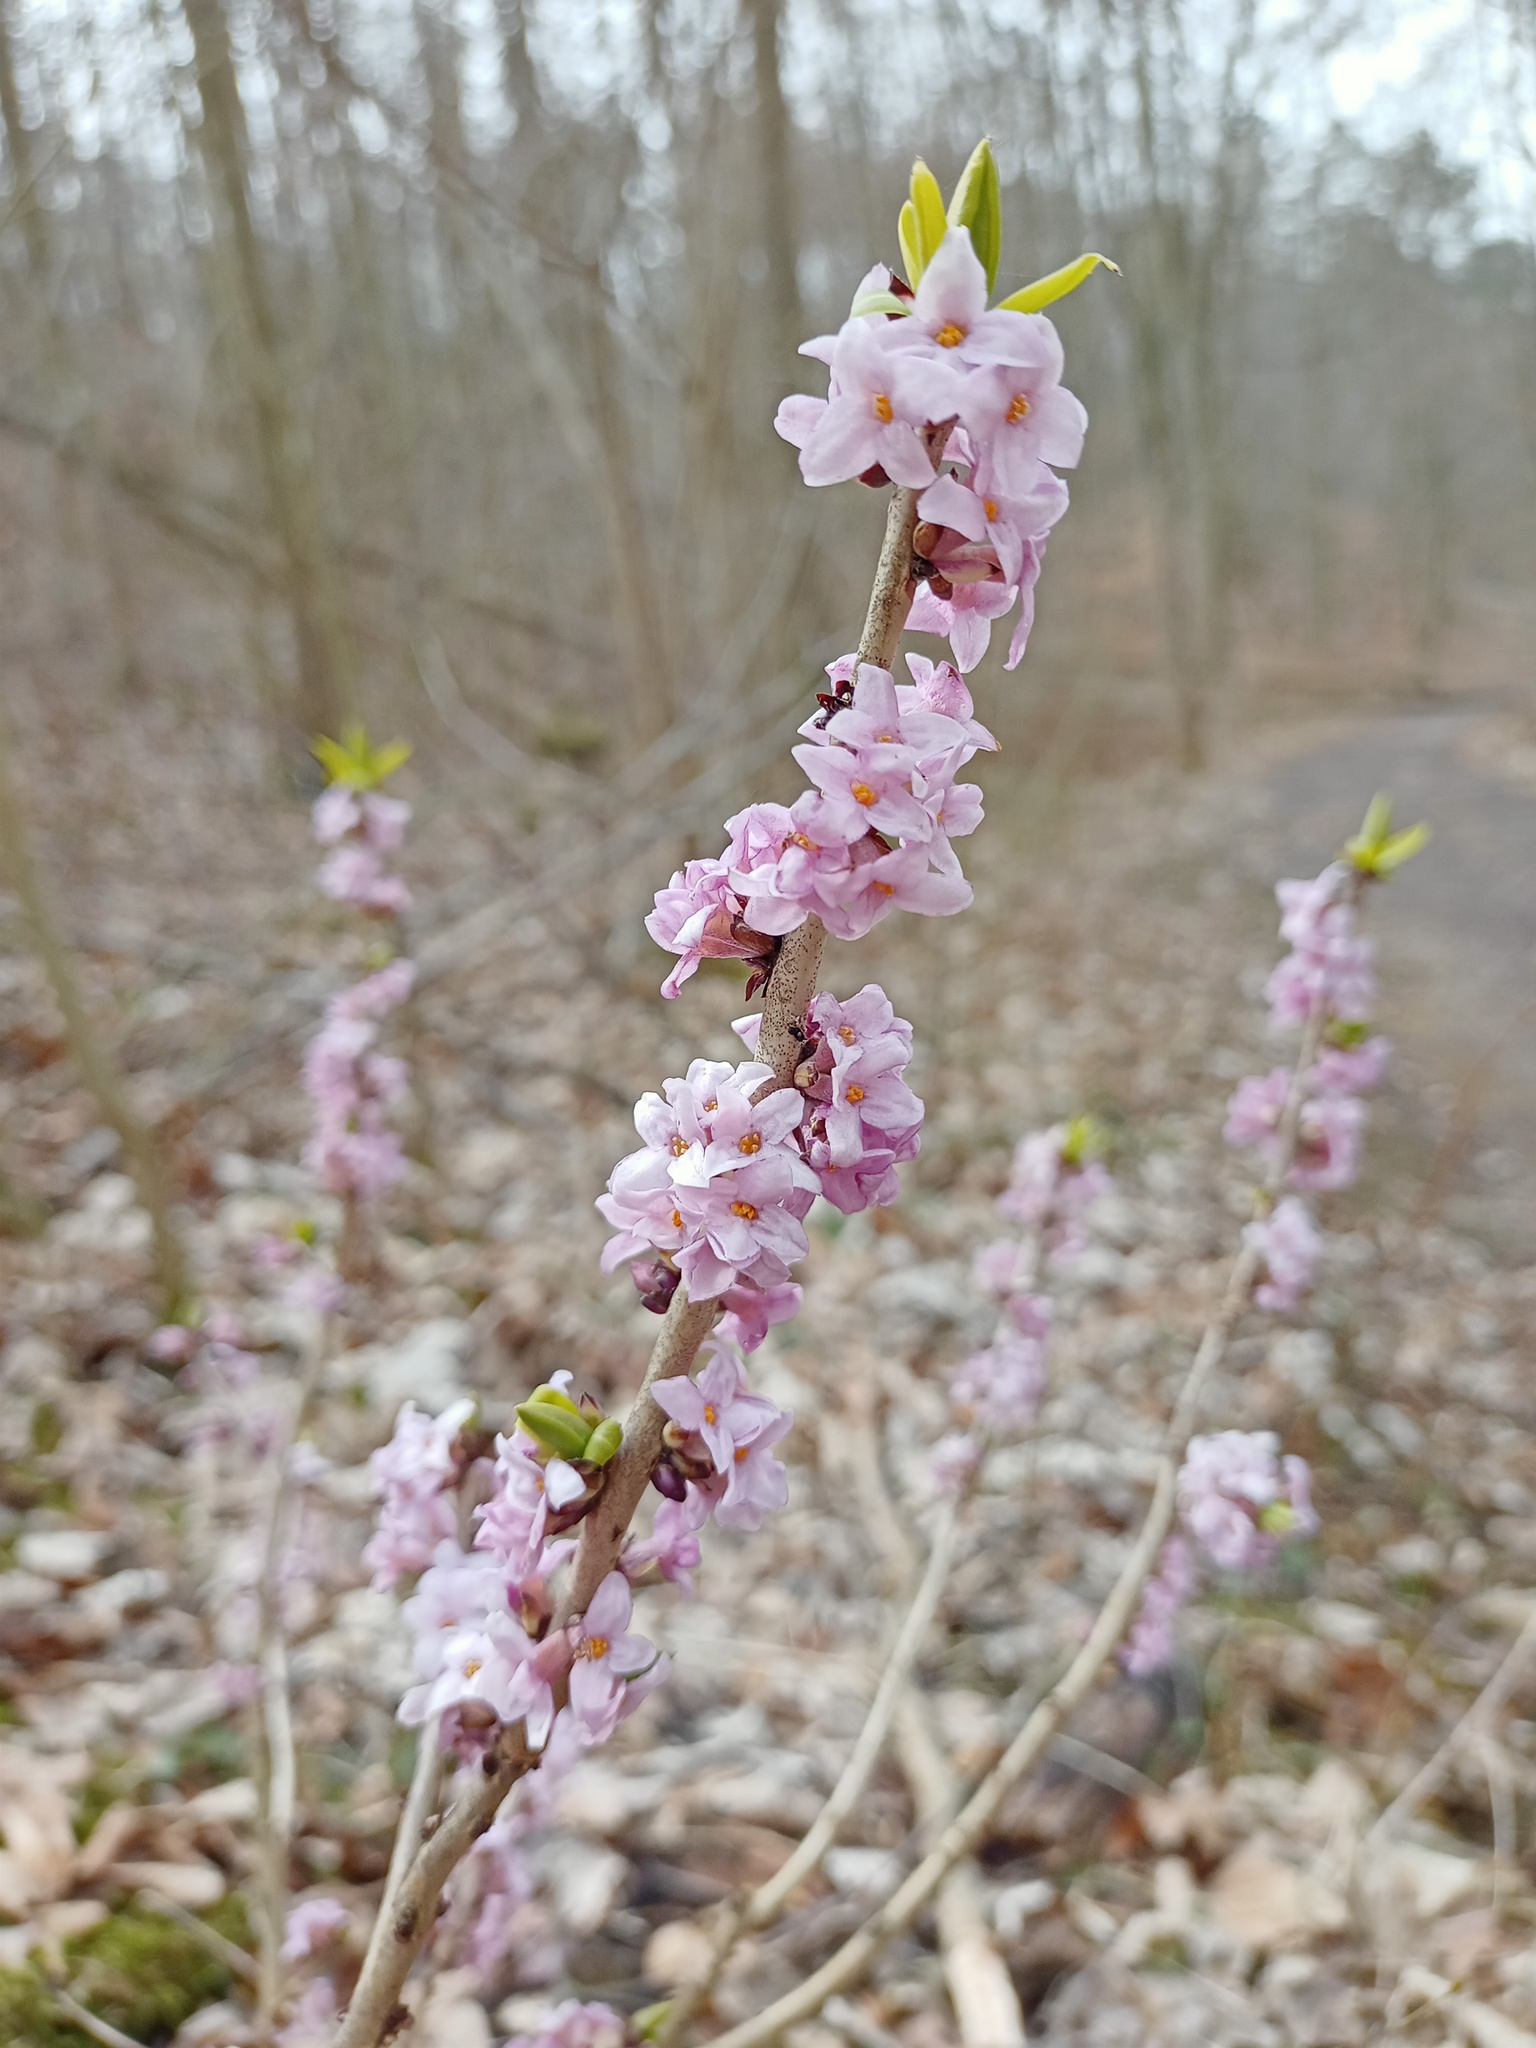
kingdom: Plantae
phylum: Tracheophyta
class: Magnoliopsida
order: Malvales
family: Thymelaeaceae
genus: Daphne
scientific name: Daphne mezereum
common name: Mezereon
